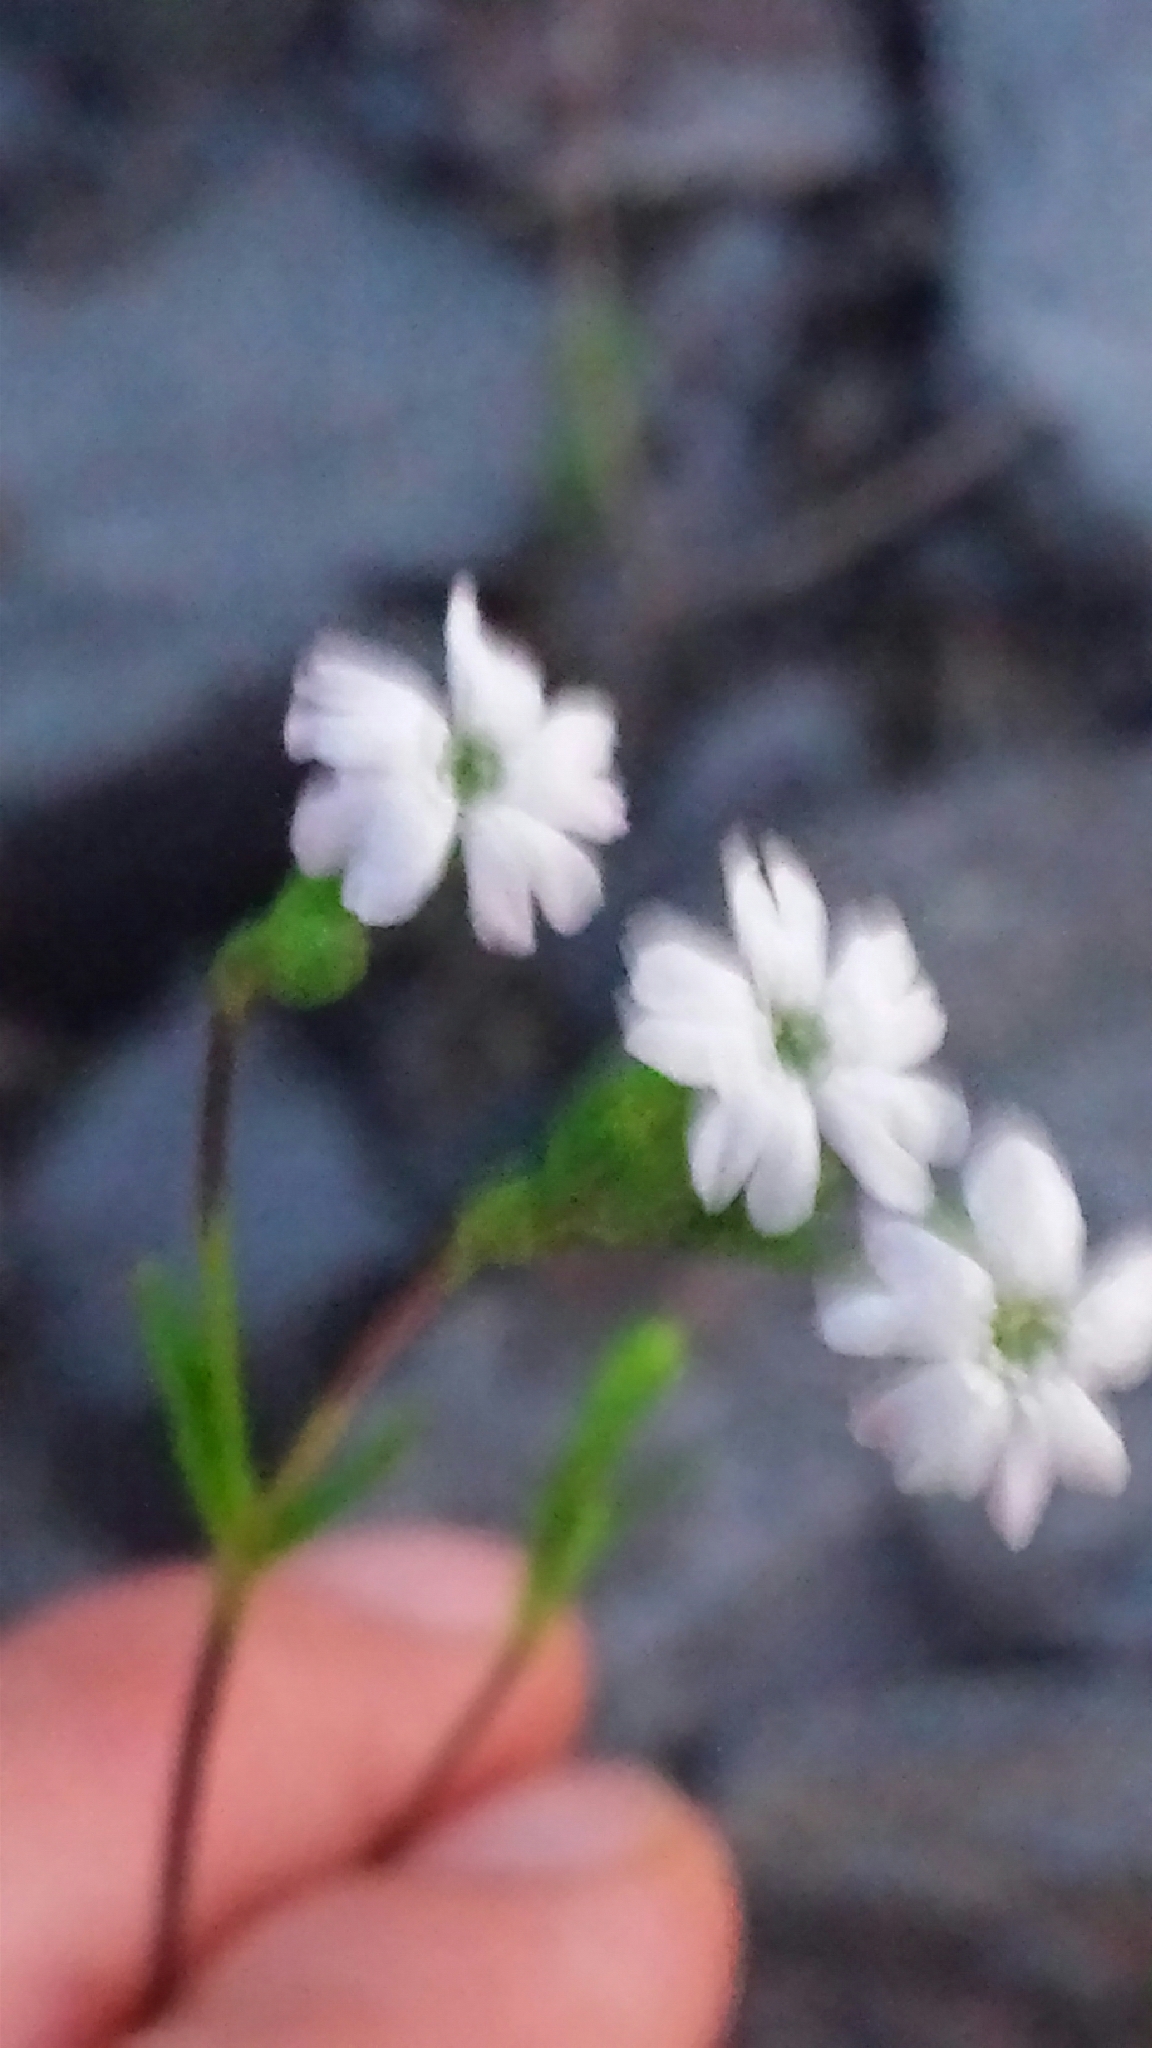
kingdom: Plantae
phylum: Tracheophyta
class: Magnoliopsida
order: Caryophyllales
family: Caryophyllaceae
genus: Silene
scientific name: Silene antirrhina
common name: Sleepy catchfly
